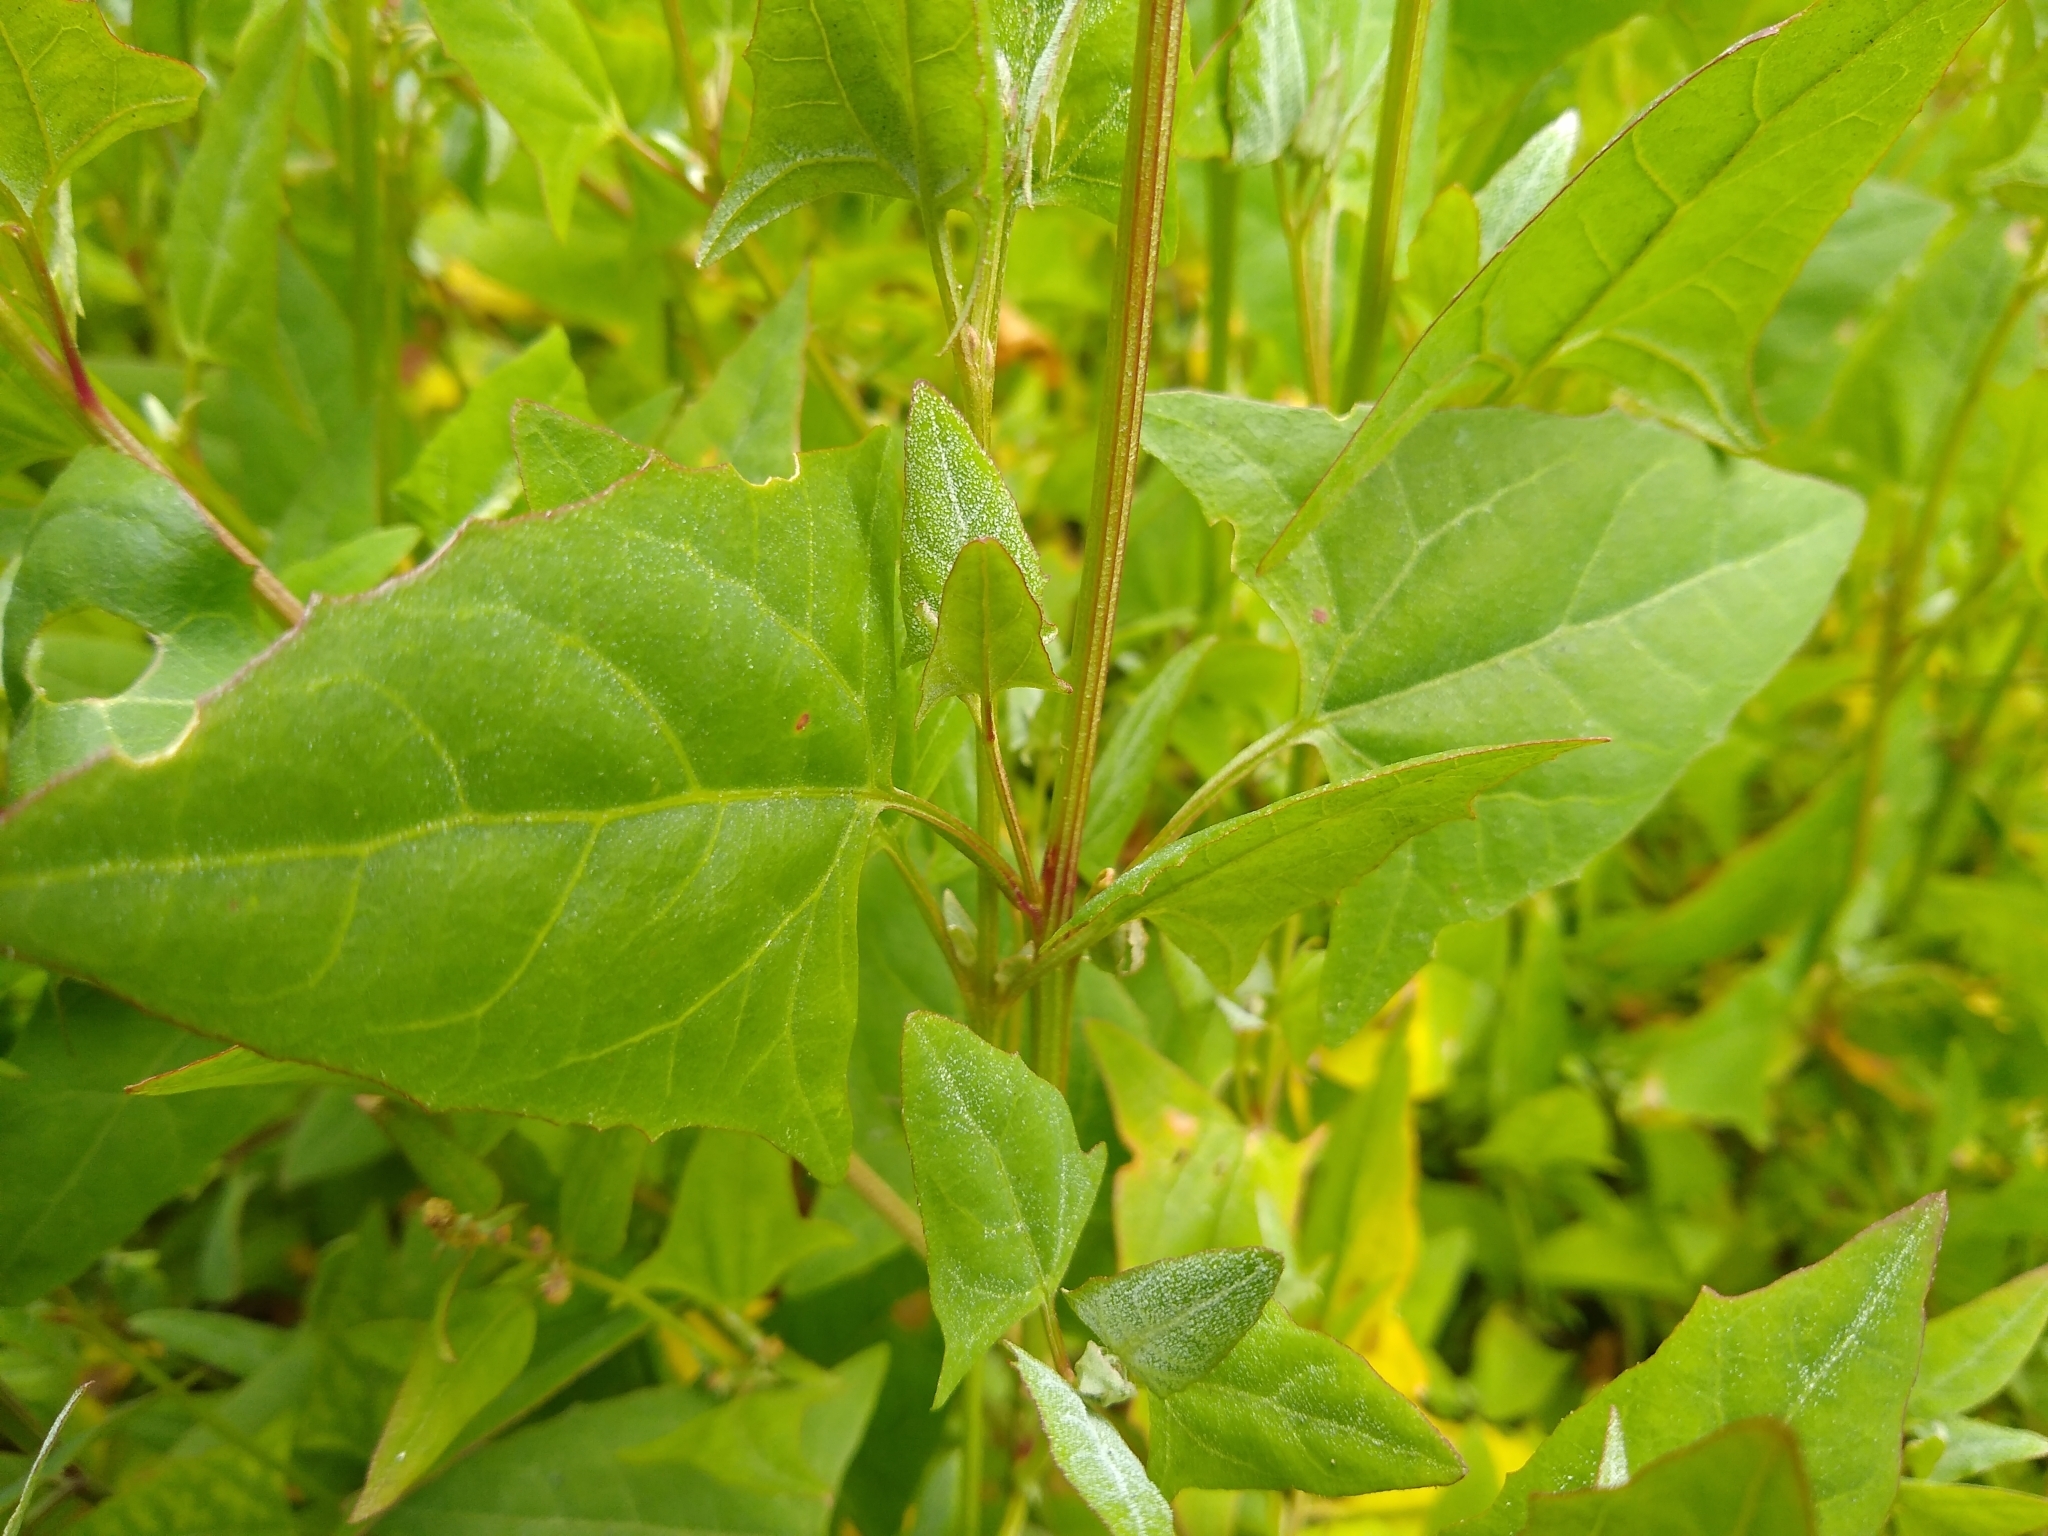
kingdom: Plantae
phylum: Tracheophyta
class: Magnoliopsida
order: Caryophyllales
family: Amaranthaceae
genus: Atriplex
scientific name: Atriplex prostrata
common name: Spear-leaved orache
